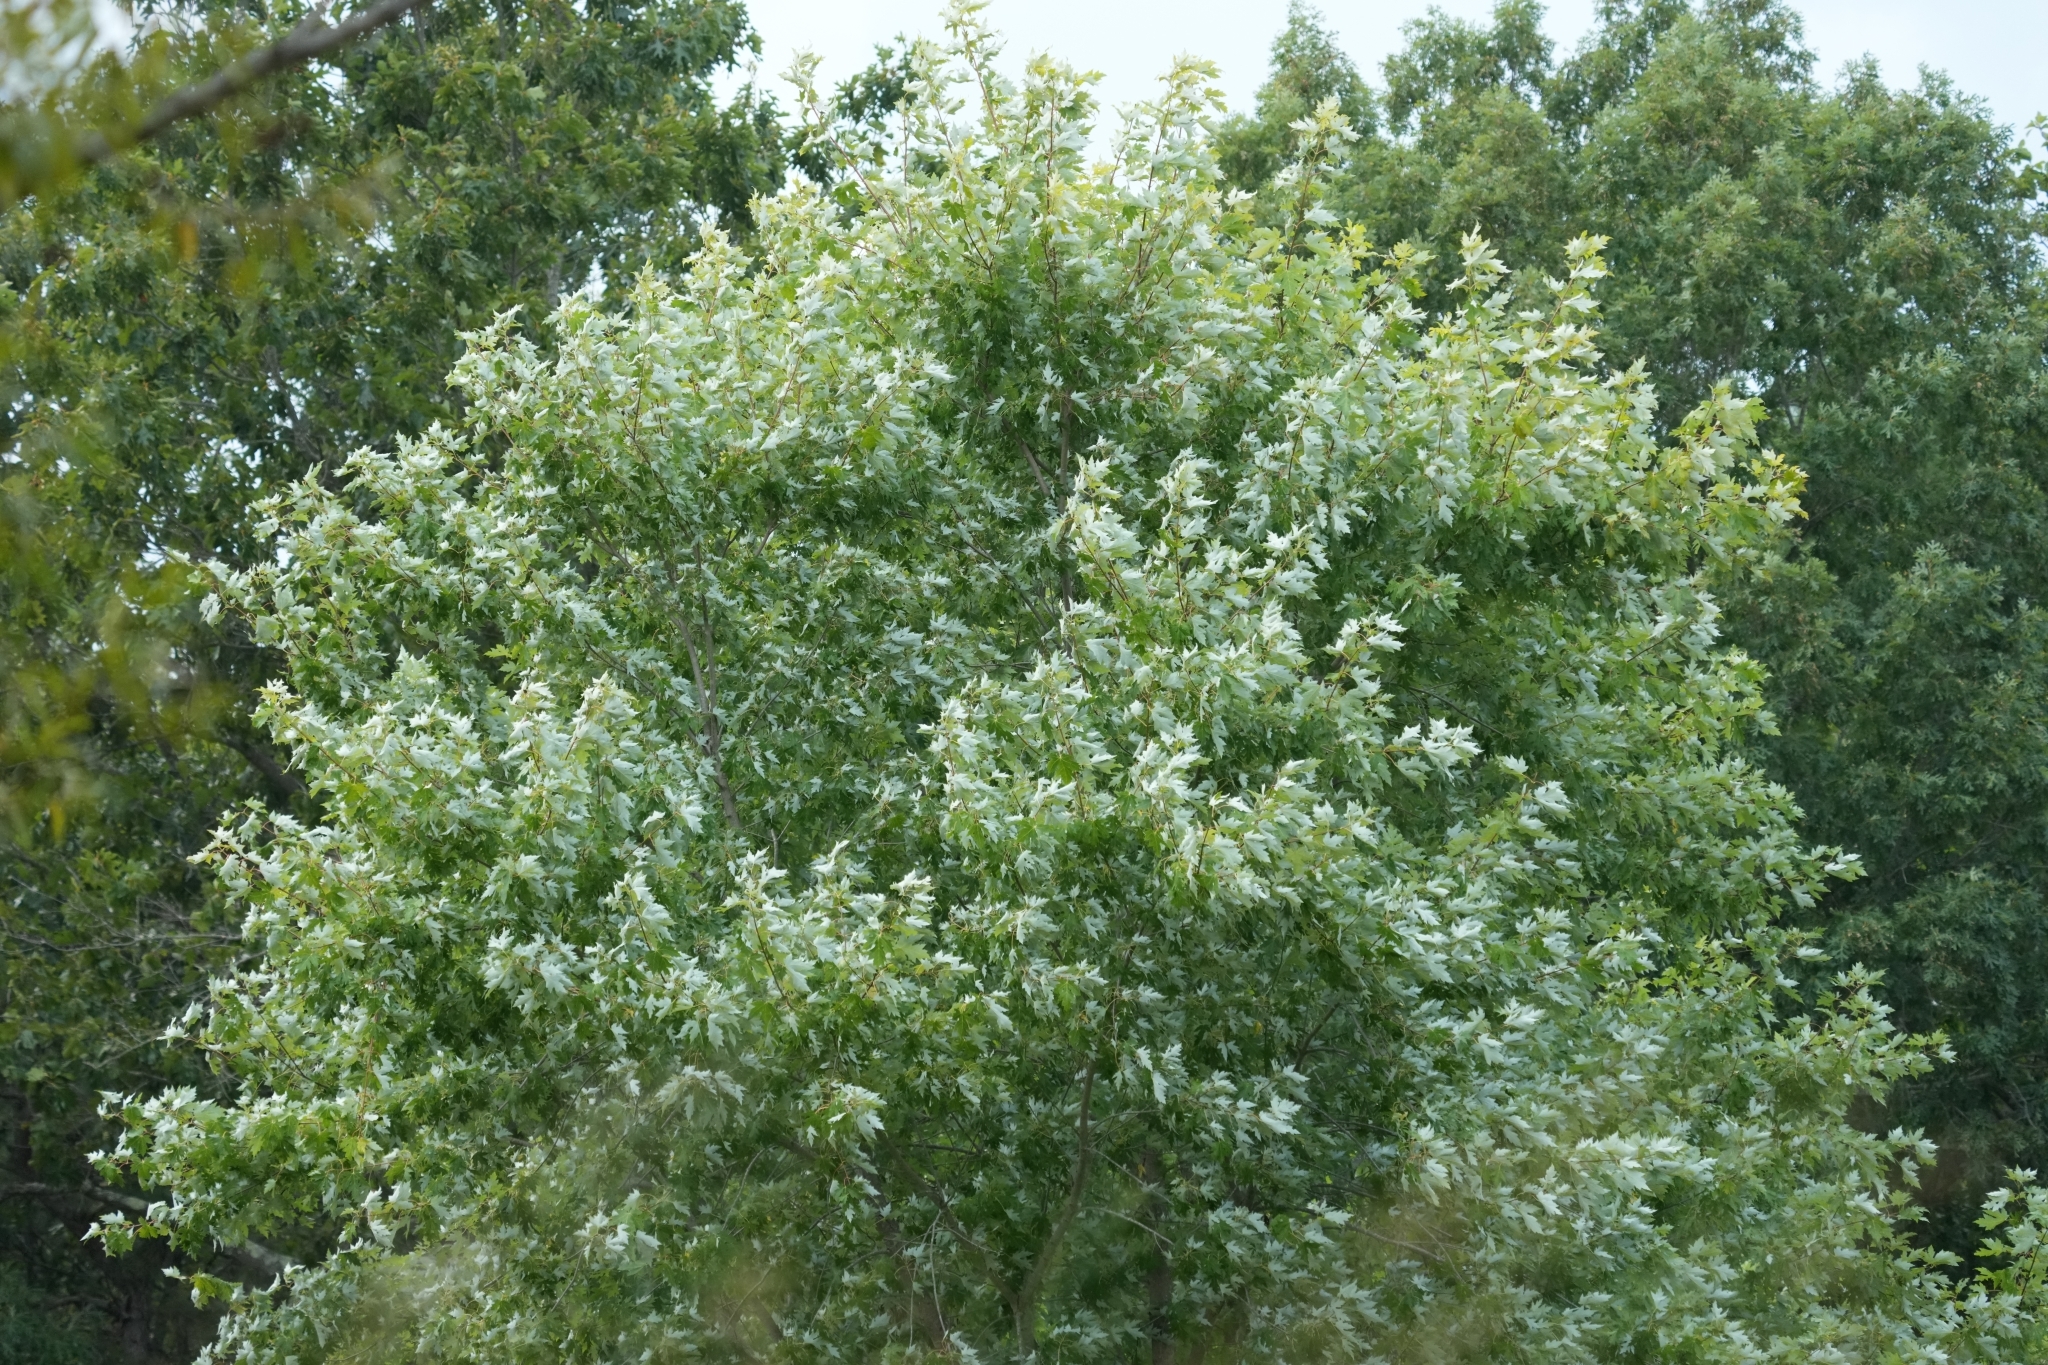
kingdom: Plantae
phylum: Tracheophyta
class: Magnoliopsida
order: Sapindales
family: Sapindaceae
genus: Acer
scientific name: Acer saccharinum
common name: Silver maple
